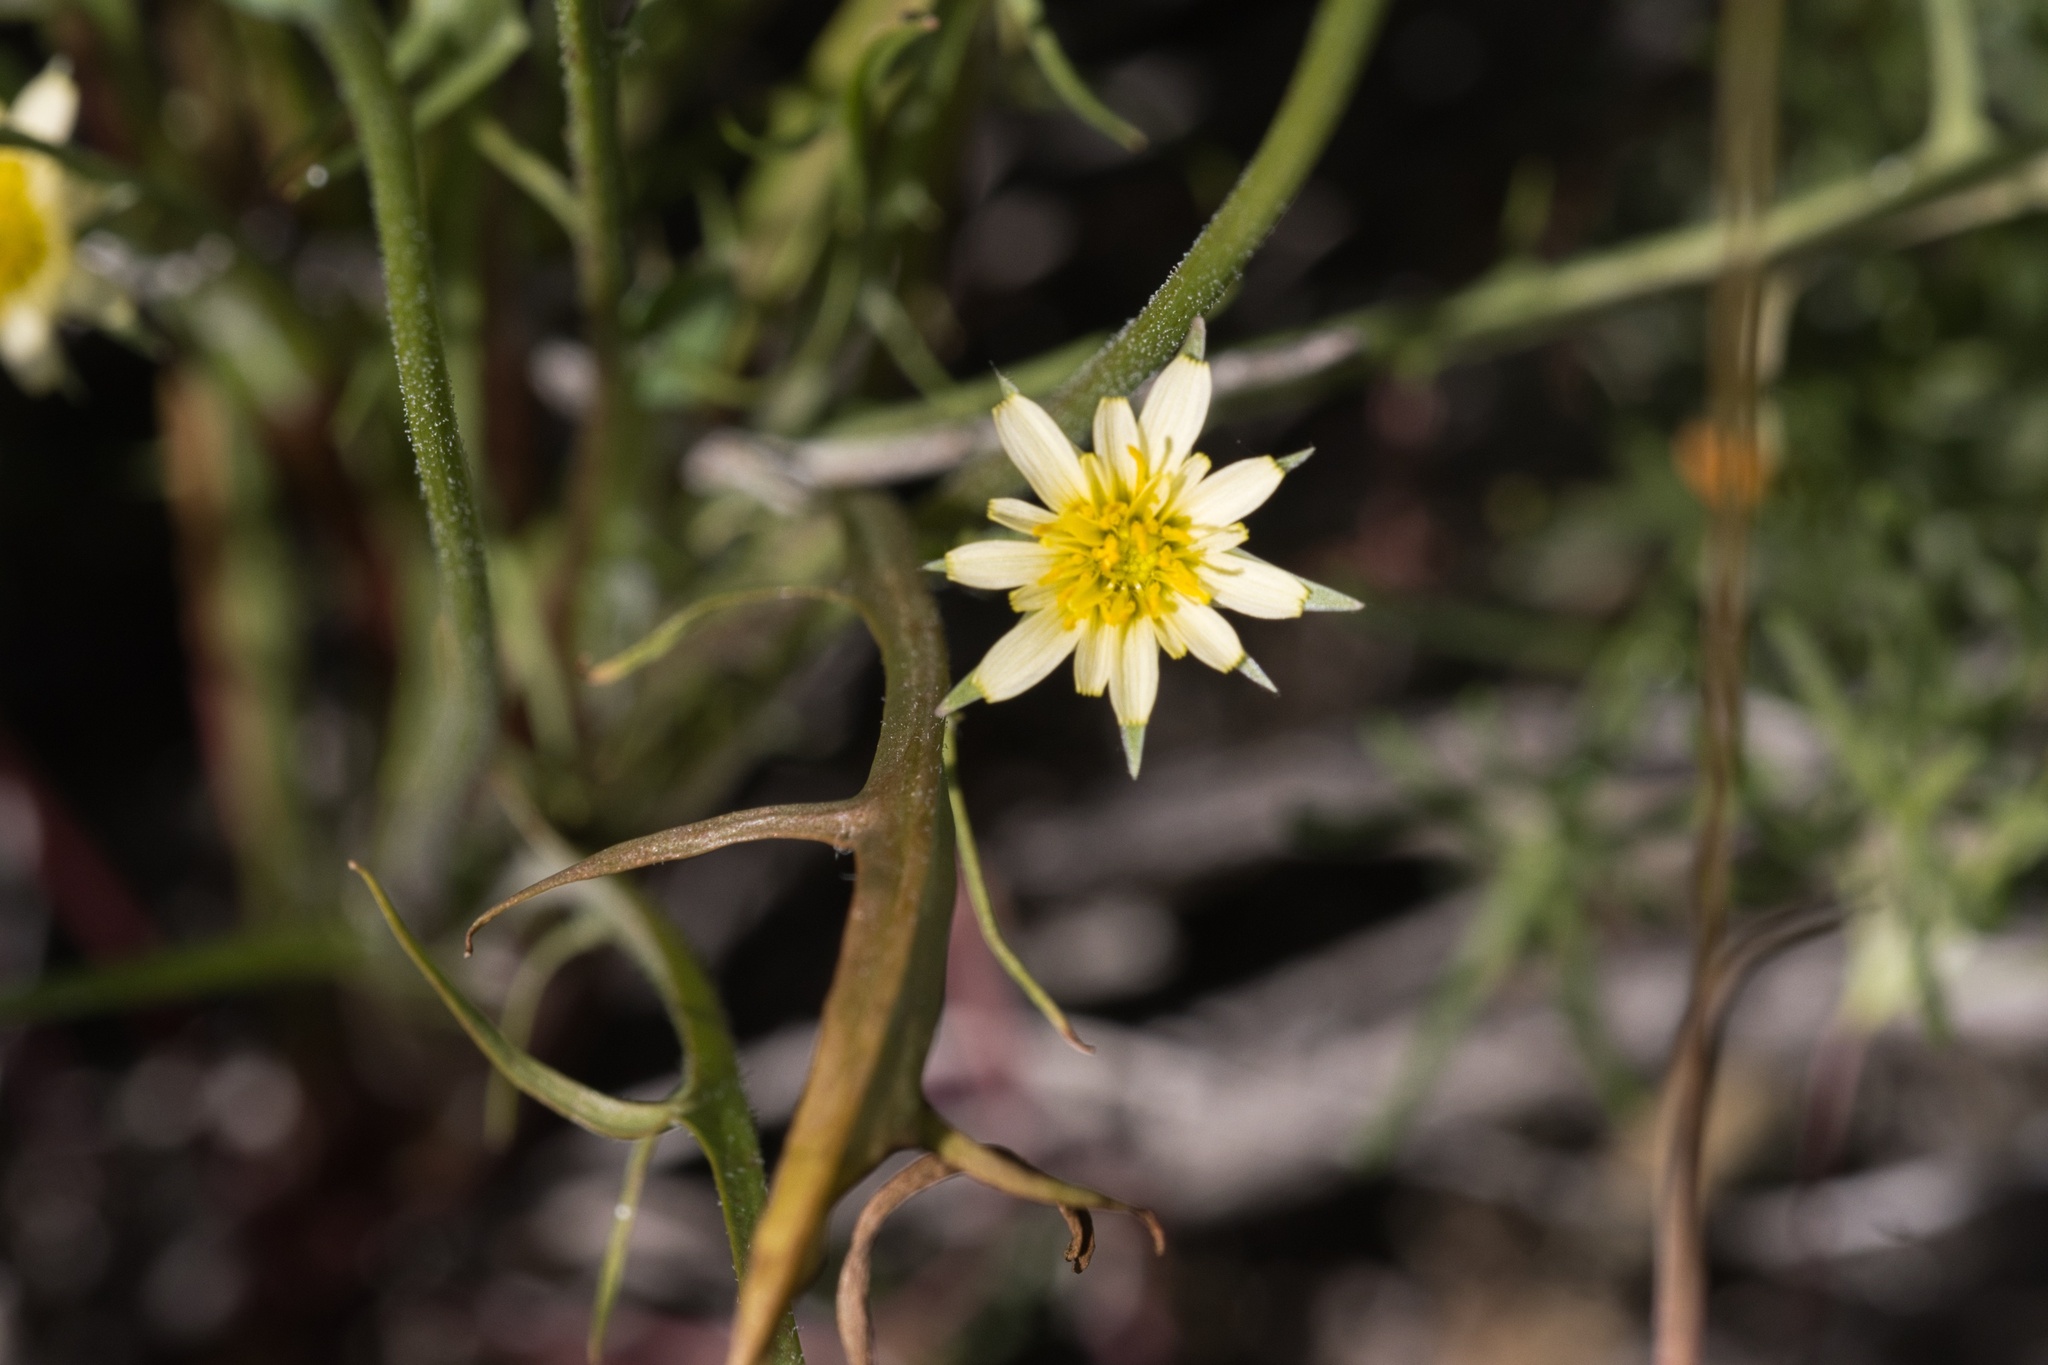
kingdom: Plantae
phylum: Tracheophyta
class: Magnoliopsida
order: Asterales
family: Asteraceae
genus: Microseris
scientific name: Microseris lindleyi
